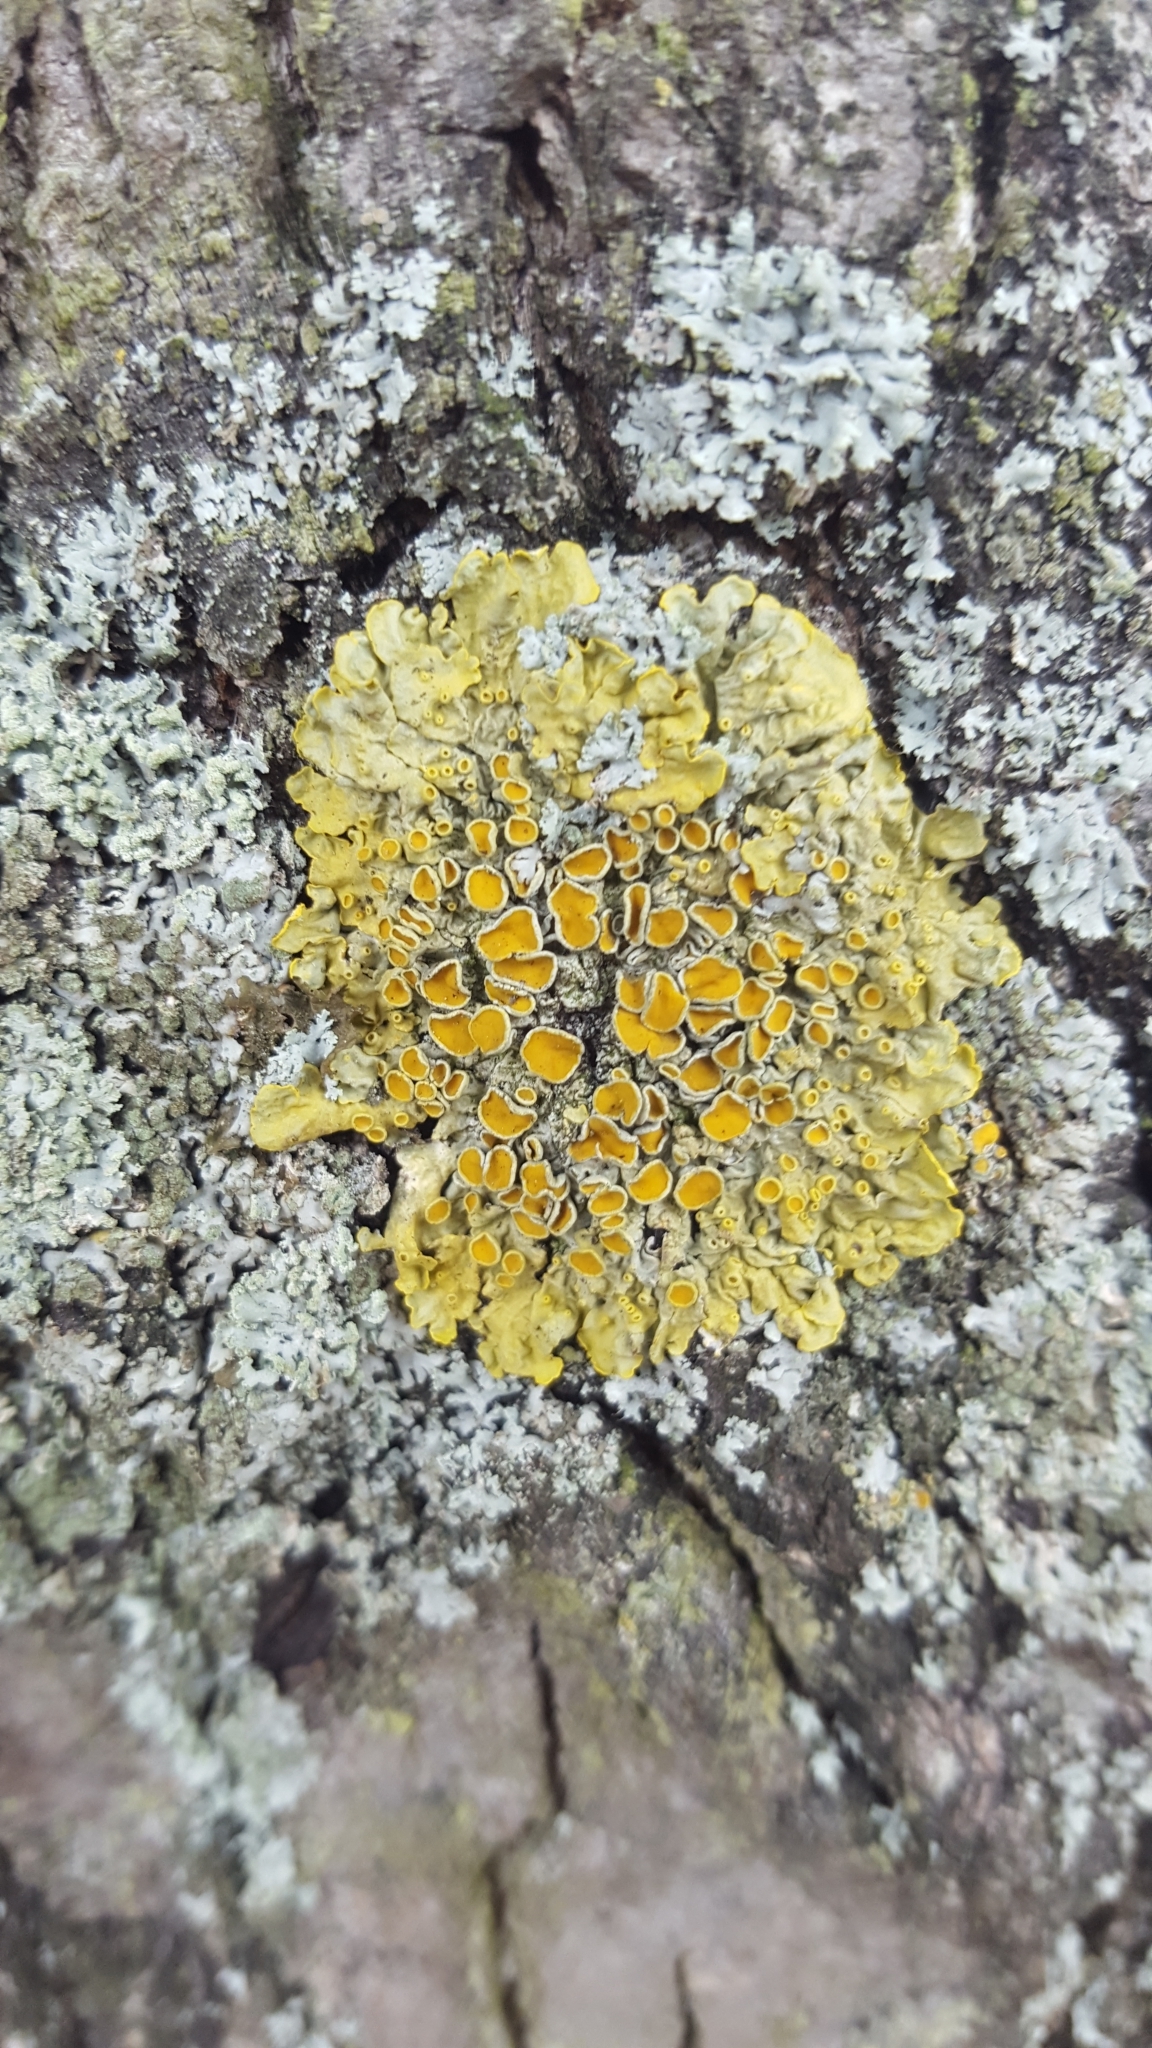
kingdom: Fungi
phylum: Ascomycota
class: Lecanoromycetes
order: Teloschistales
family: Teloschistaceae
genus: Xanthoria
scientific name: Xanthoria parietina
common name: Common orange lichen
